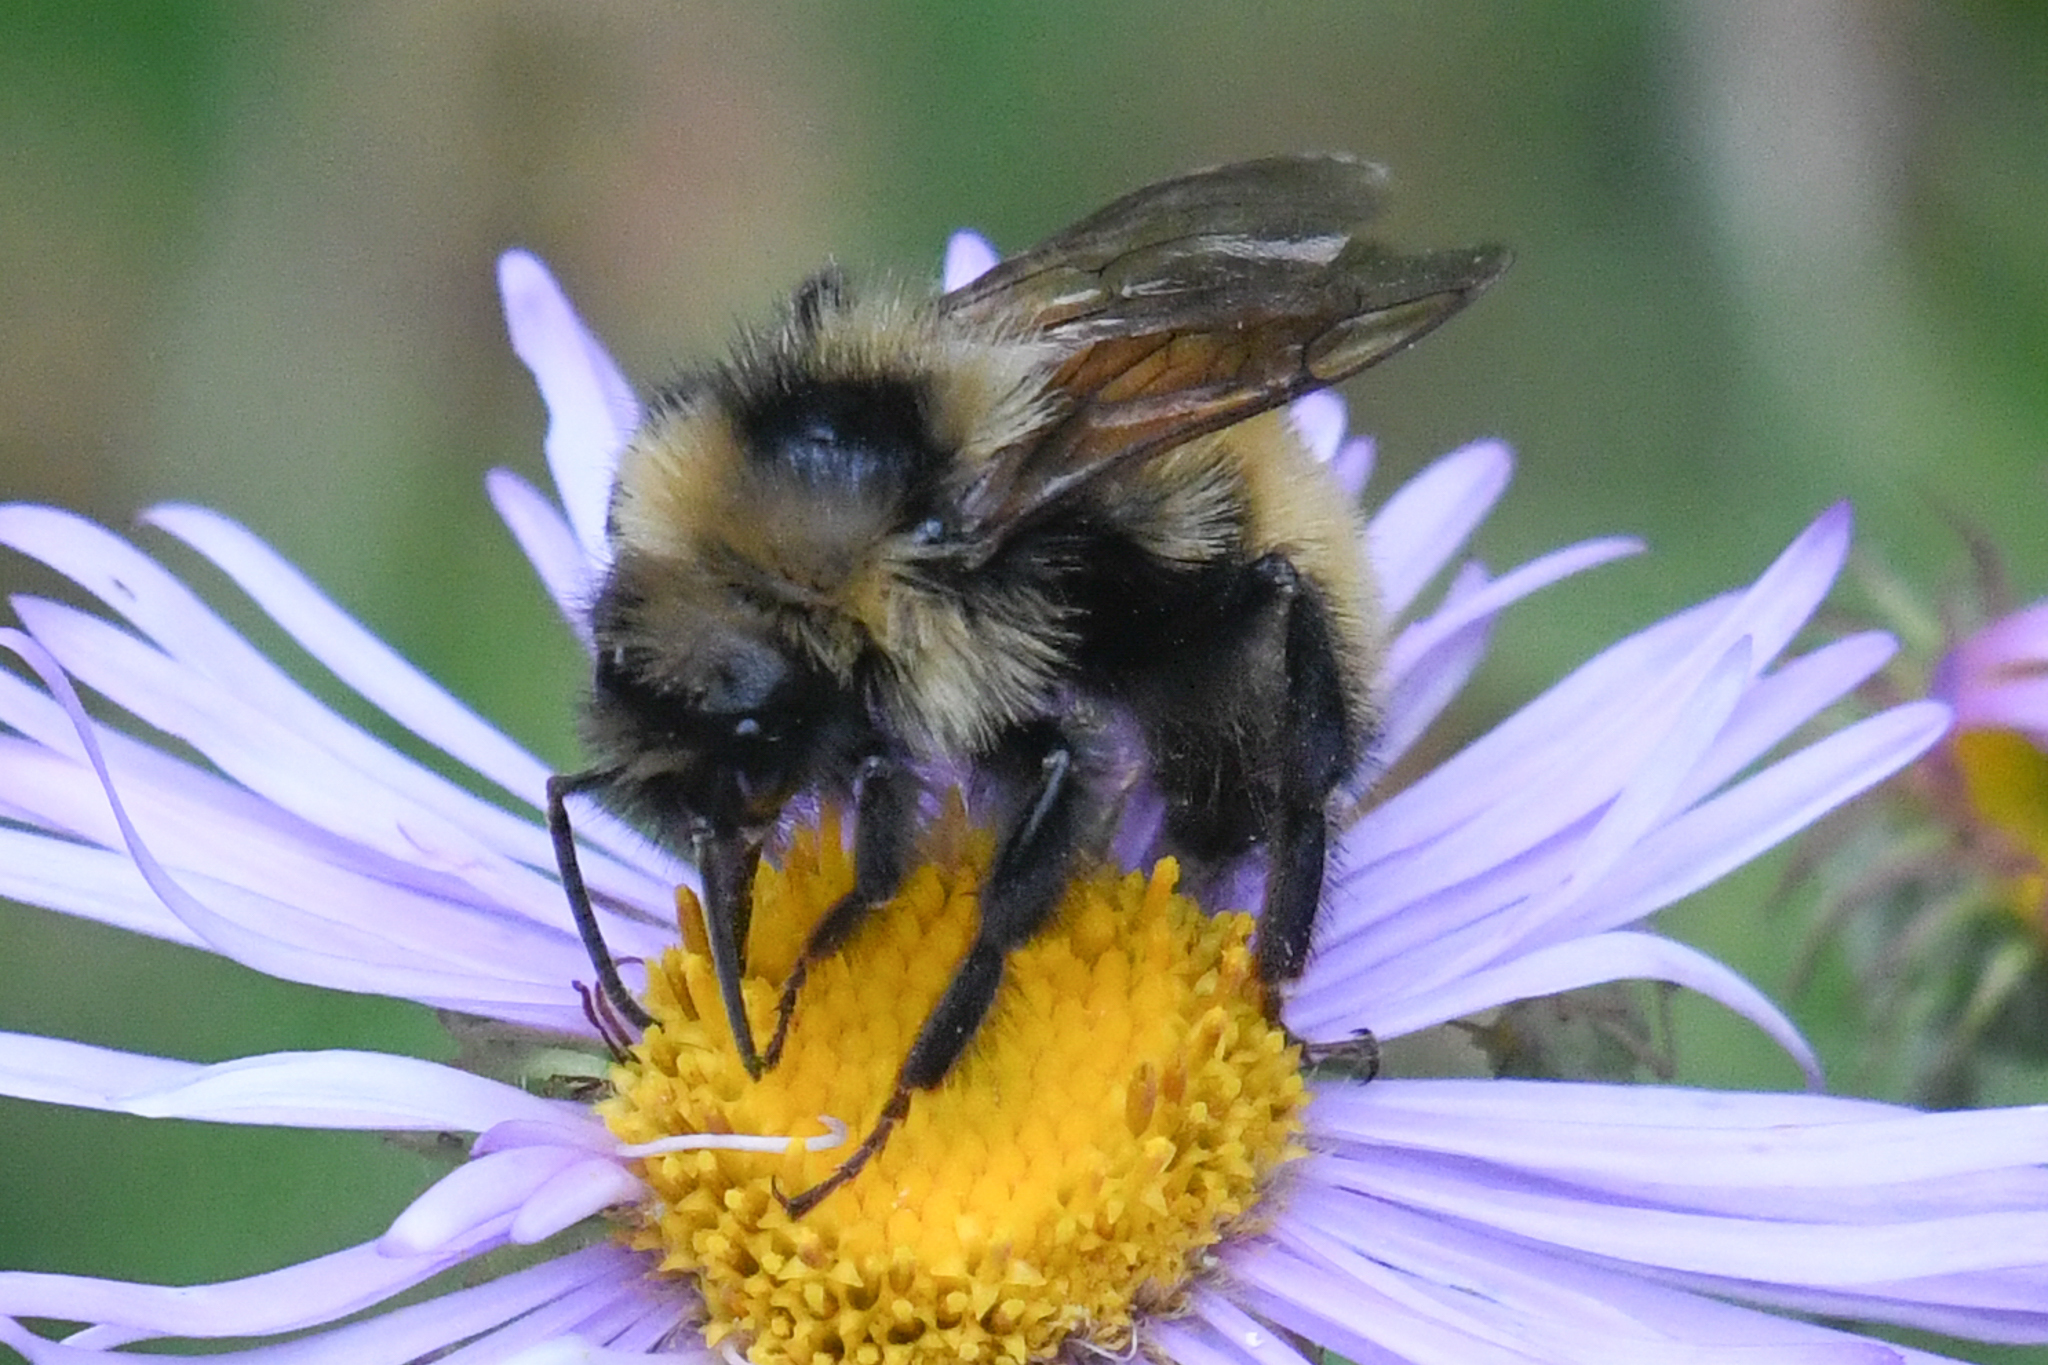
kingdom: Animalia
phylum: Arthropoda
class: Insecta
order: Hymenoptera
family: Apidae
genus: Bombus
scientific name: Bombus insularis
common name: Indiscriminate cuckoo bumble bee
